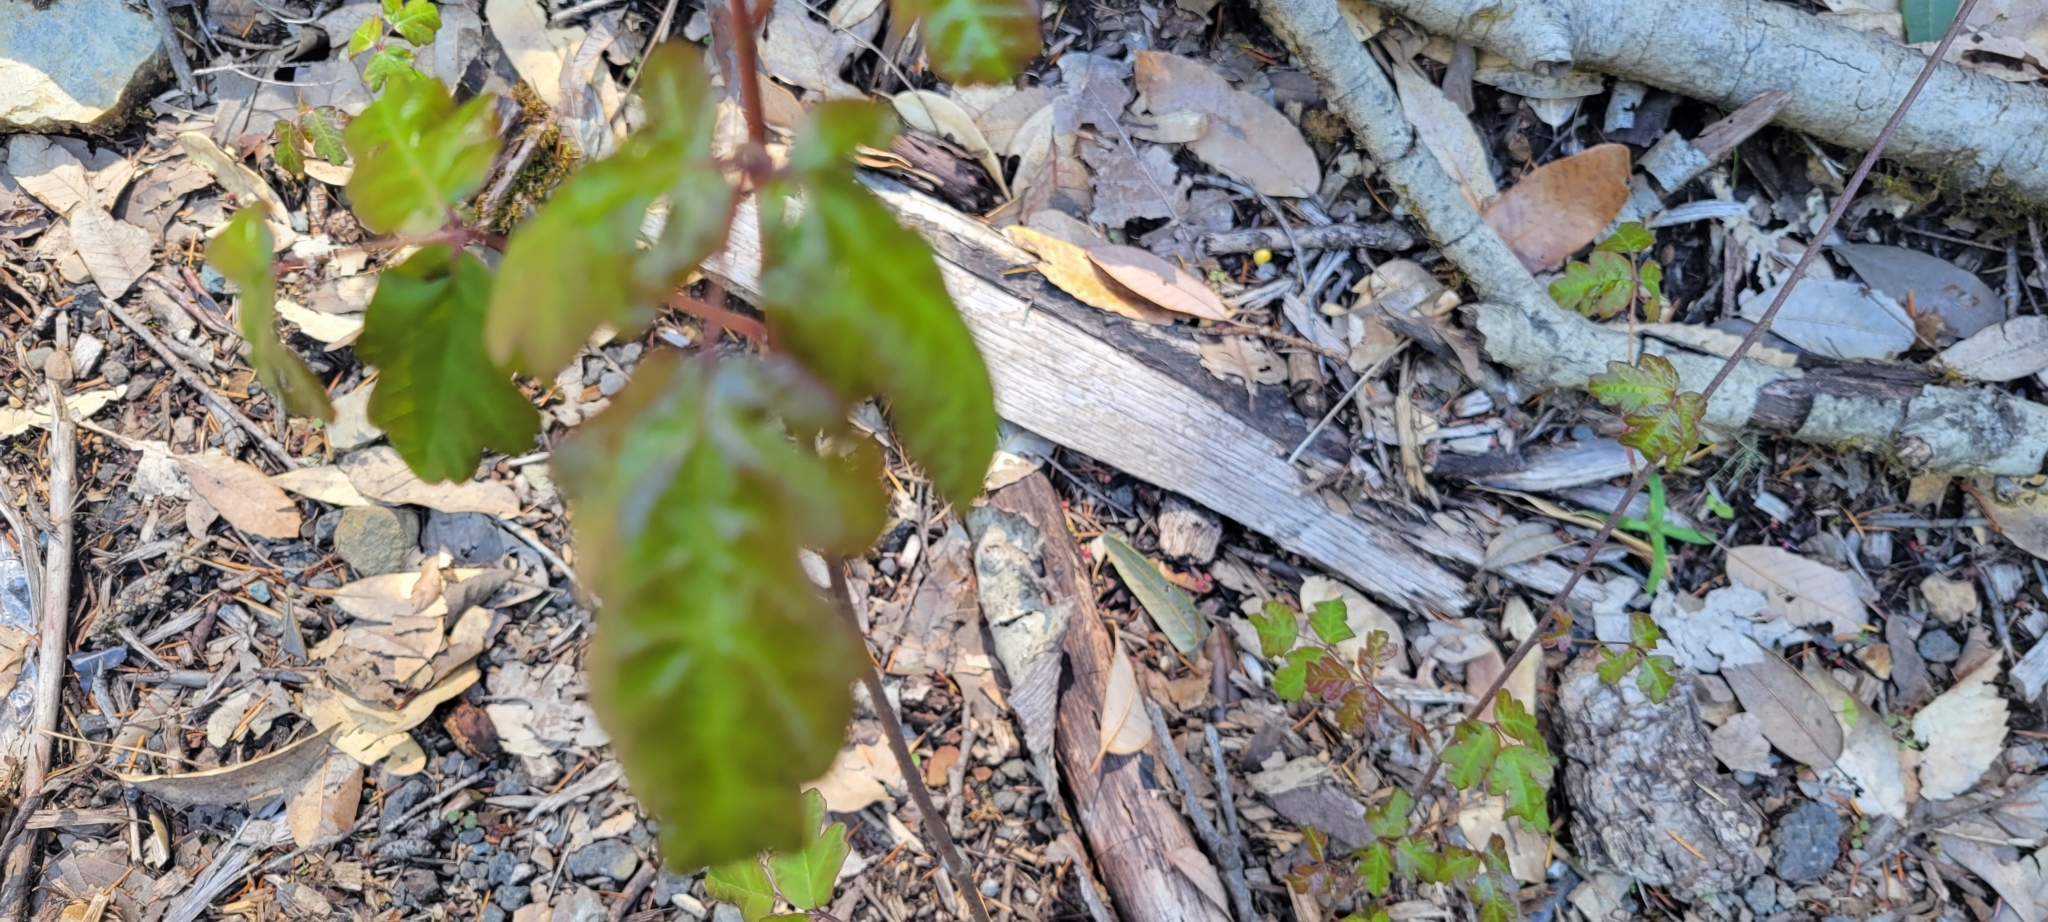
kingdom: Plantae
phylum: Tracheophyta
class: Magnoliopsida
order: Sapindales
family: Anacardiaceae
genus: Toxicodendron
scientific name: Toxicodendron diversilobum
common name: Pacific poison-oak
